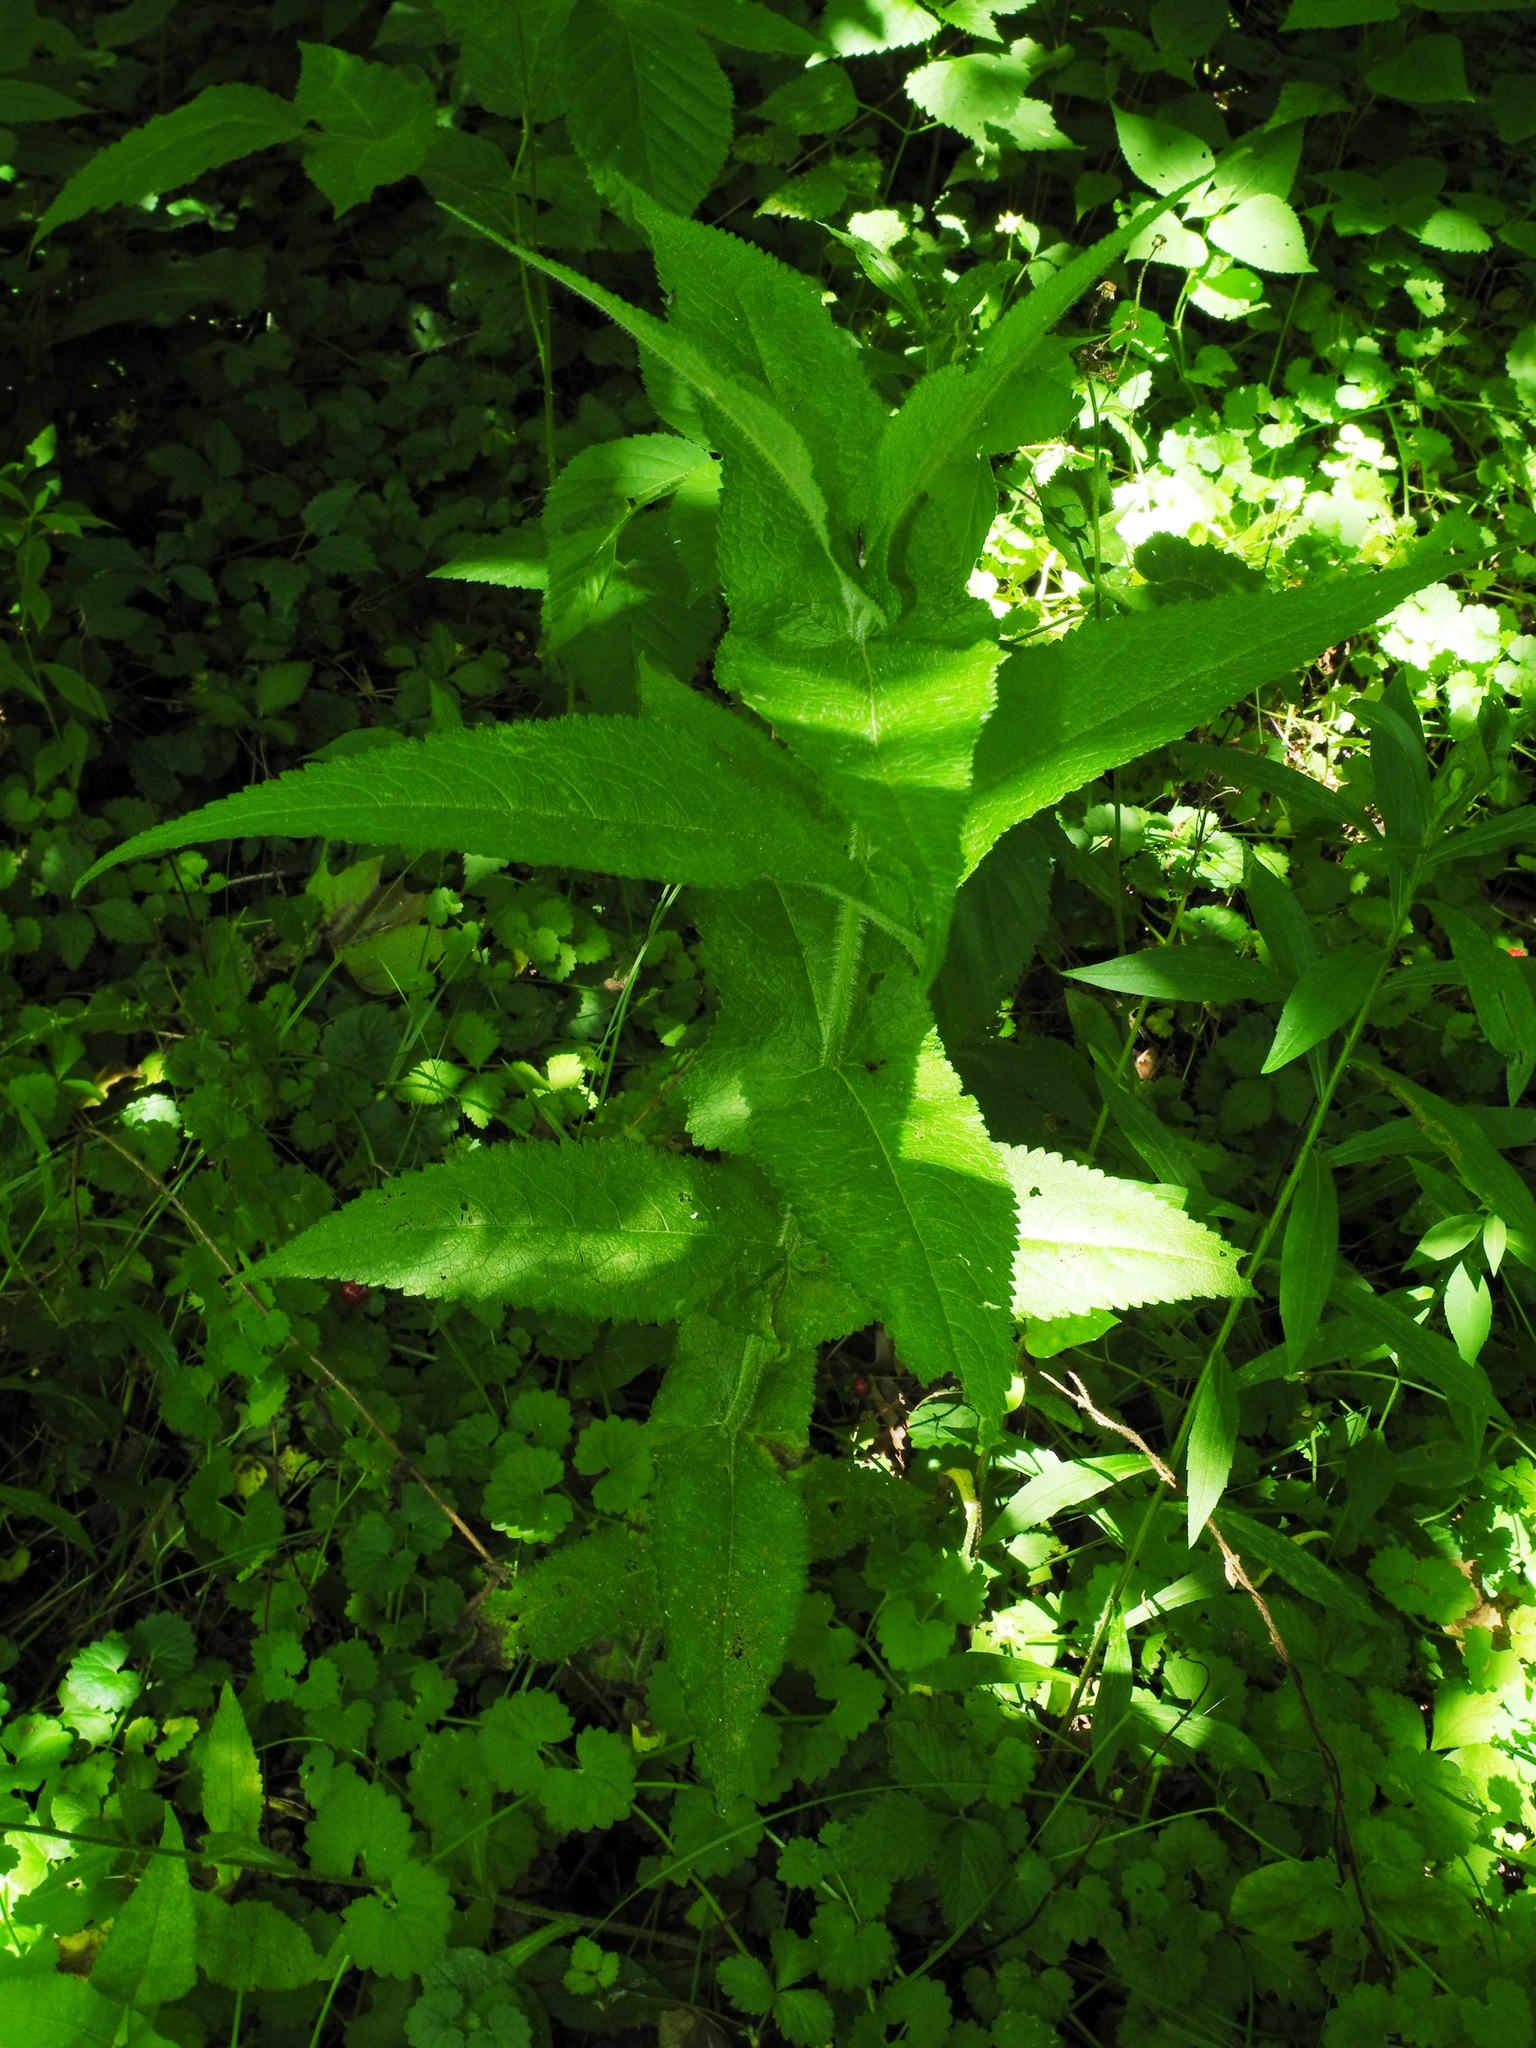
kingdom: Plantae
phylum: Tracheophyta
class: Magnoliopsida
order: Asterales
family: Asteraceae
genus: Eupatorium
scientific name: Eupatorium perfoliatum
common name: Boneset
